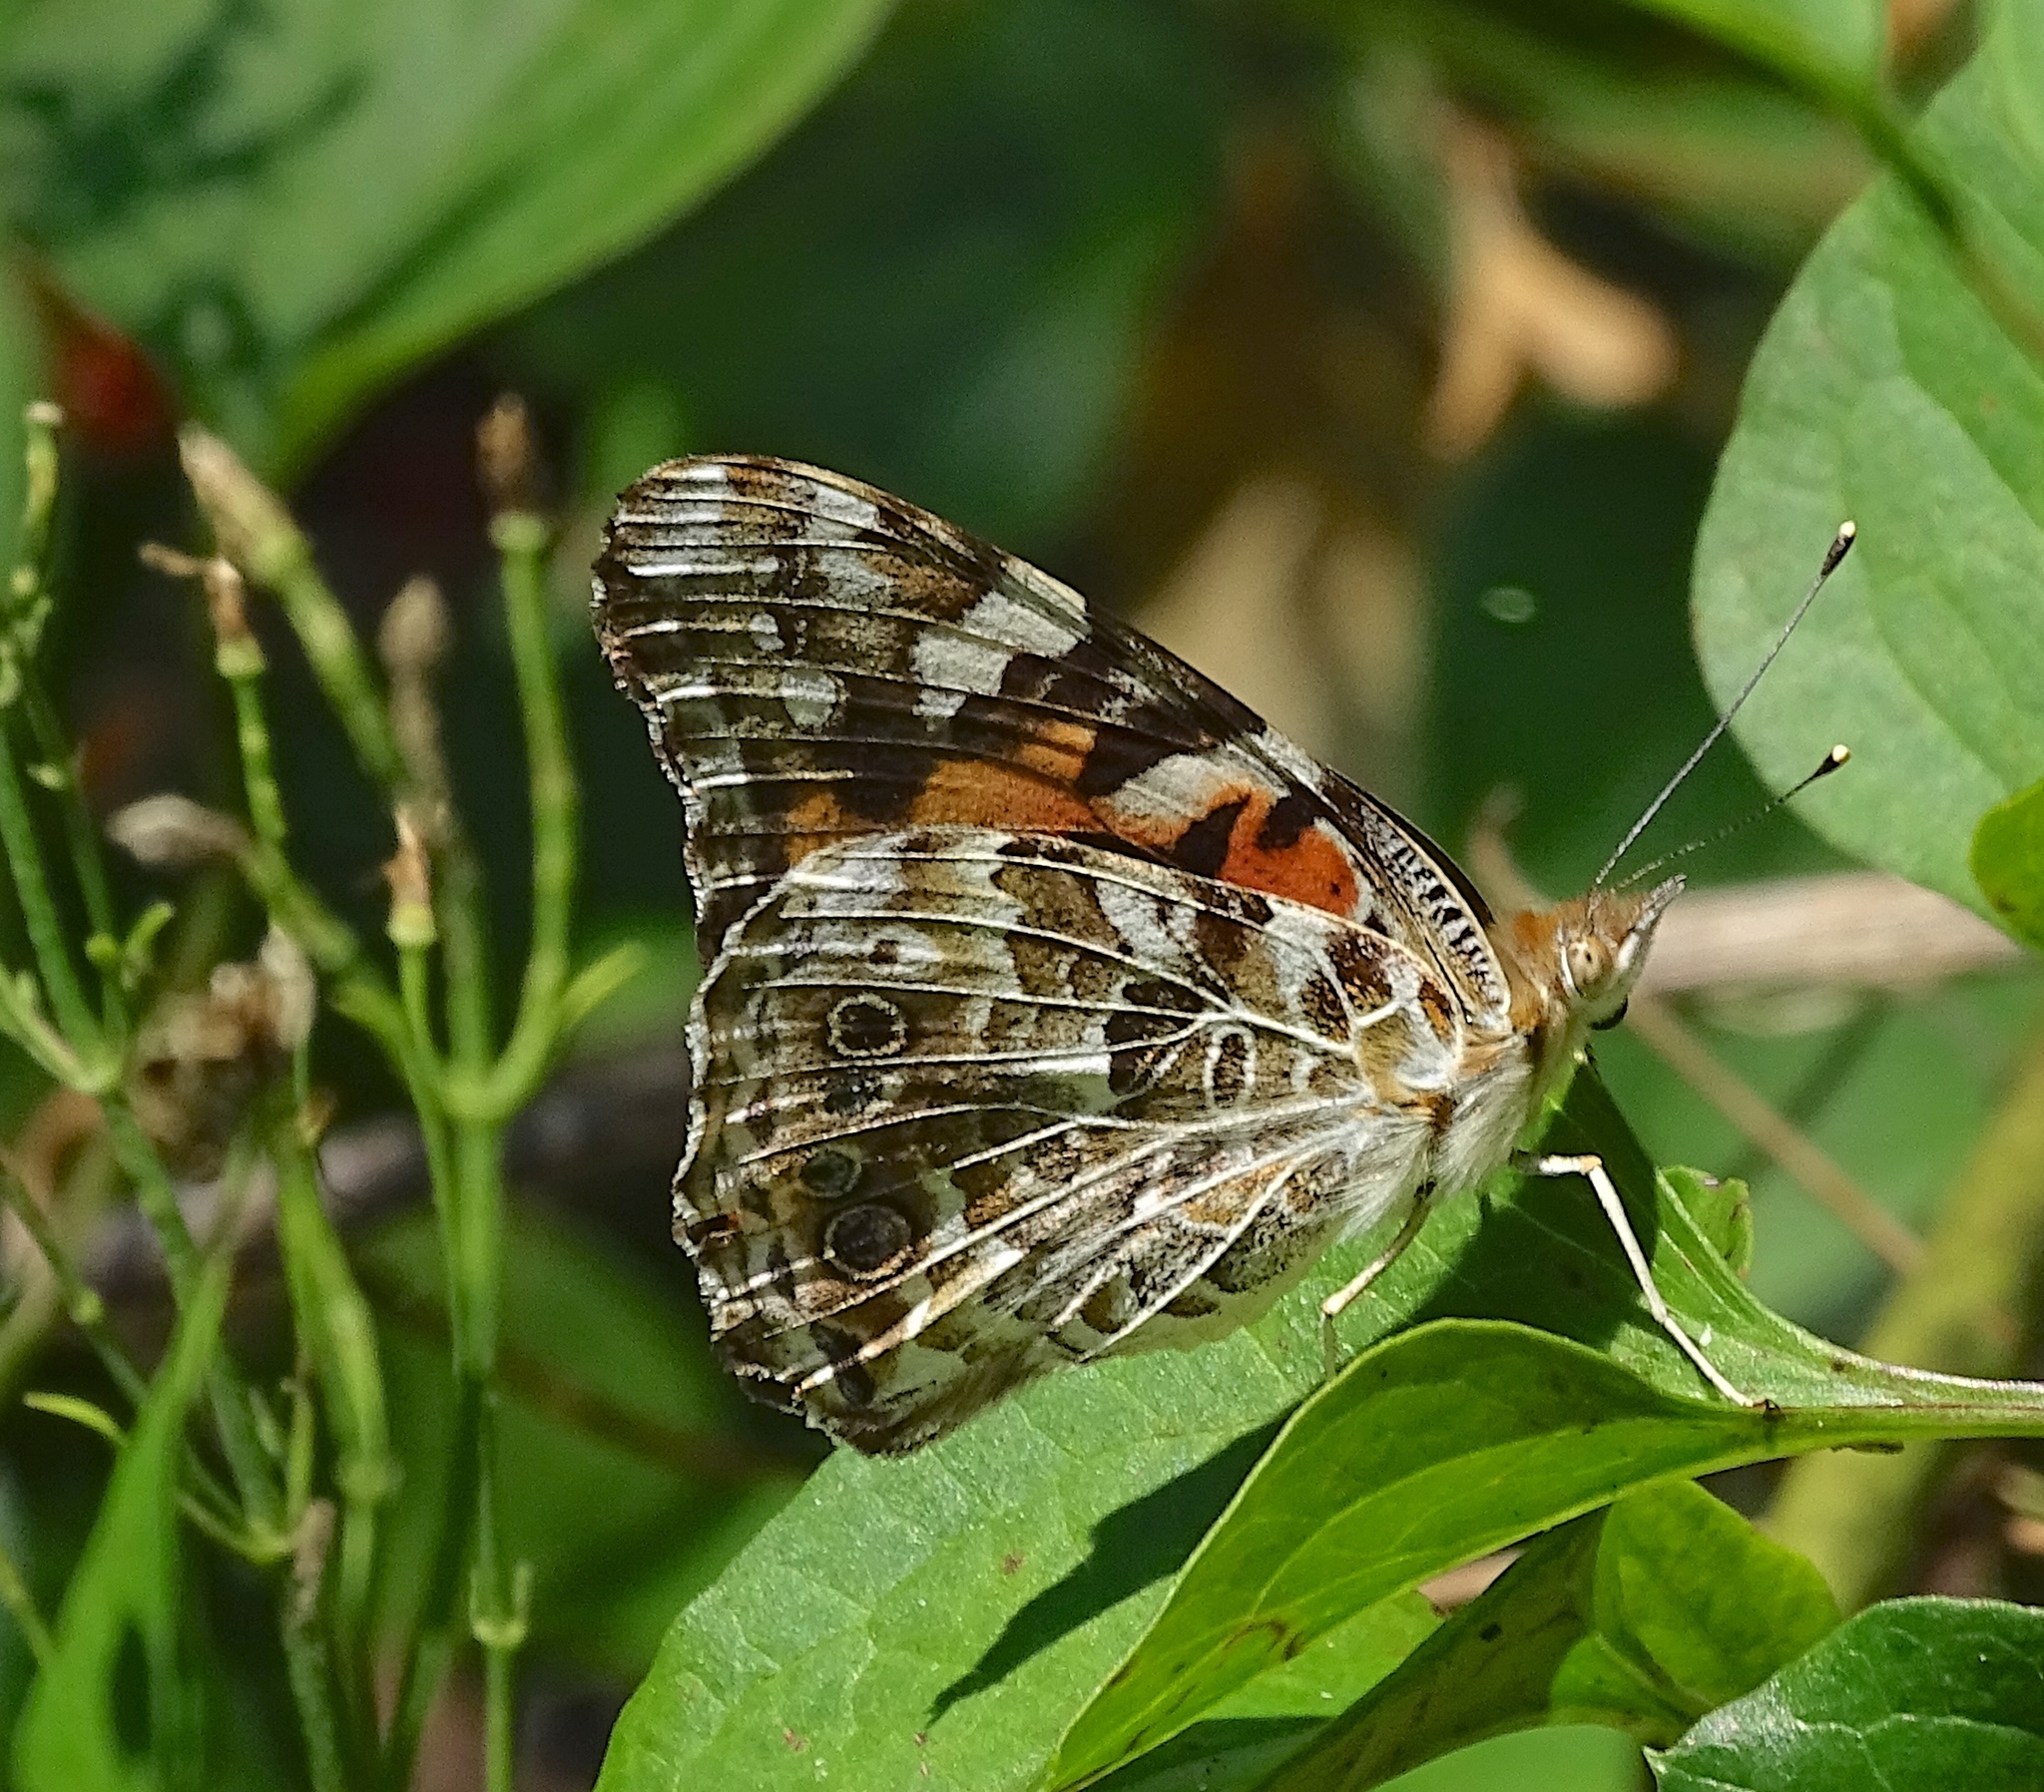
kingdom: Animalia
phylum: Arthropoda
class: Insecta
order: Lepidoptera
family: Nymphalidae
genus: Vanessa
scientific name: Vanessa cardui
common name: Painted lady
